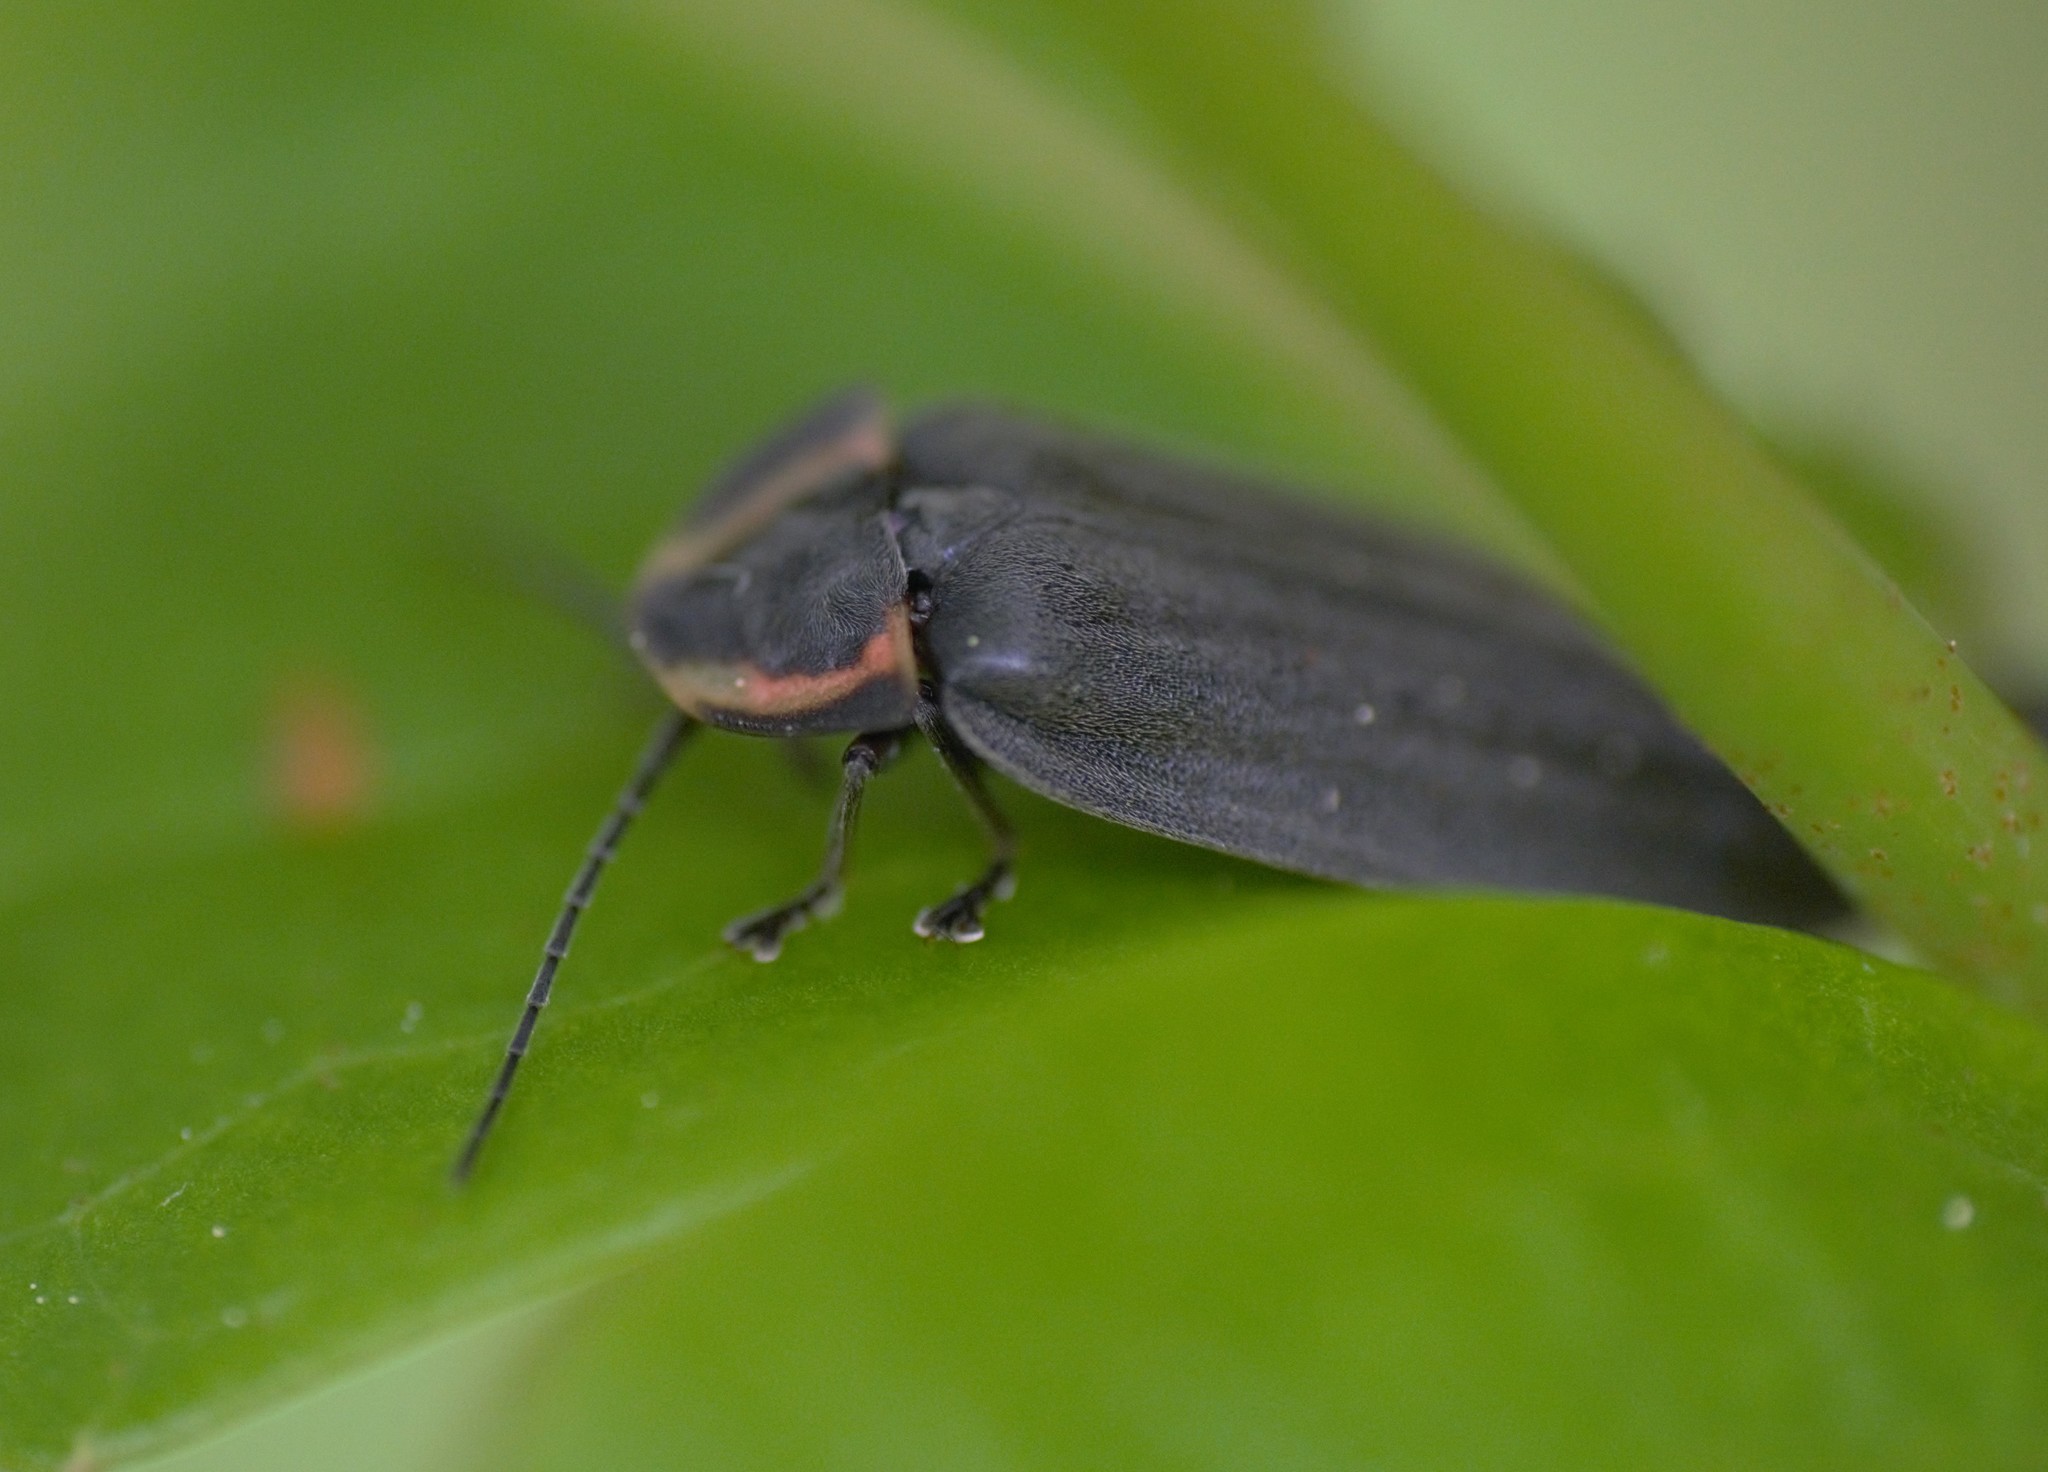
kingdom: Animalia
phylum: Arthropoda
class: Insecta
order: Coleoptera
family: Lampyridae
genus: Photinus
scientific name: Photinus corrusca
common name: Winter firefly
